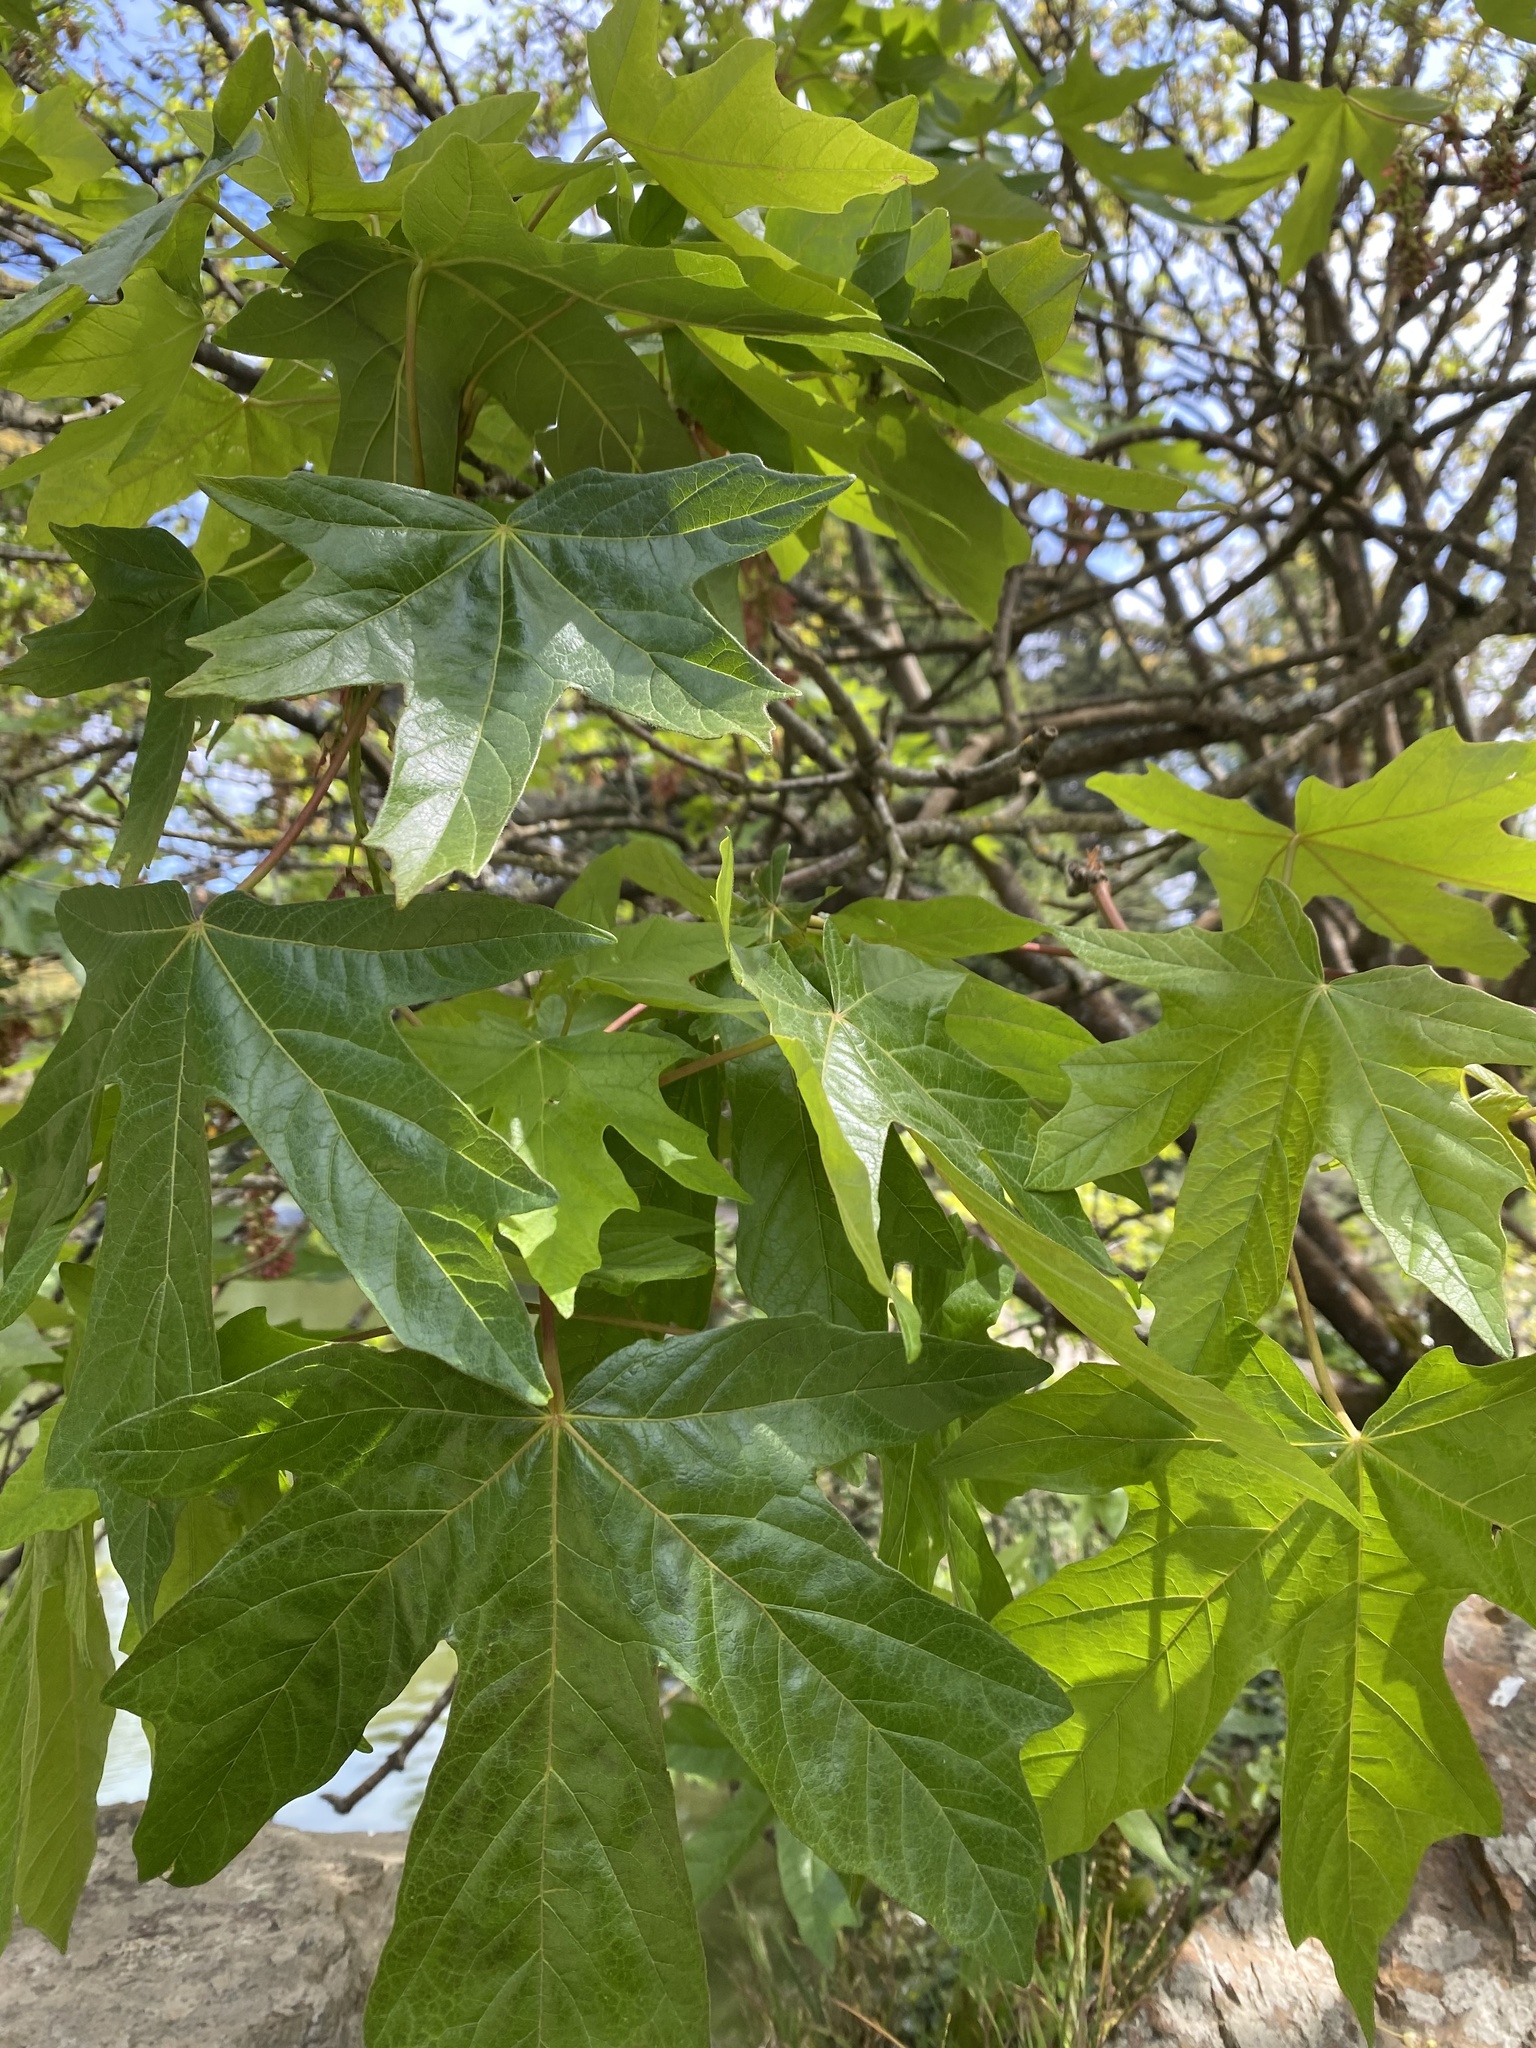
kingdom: Plantae
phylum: Tracheophyta
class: Magnoliopsida
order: Sapindales
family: Sapindaceae
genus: Acer
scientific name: Acer macrophyllum
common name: Oregon maple
